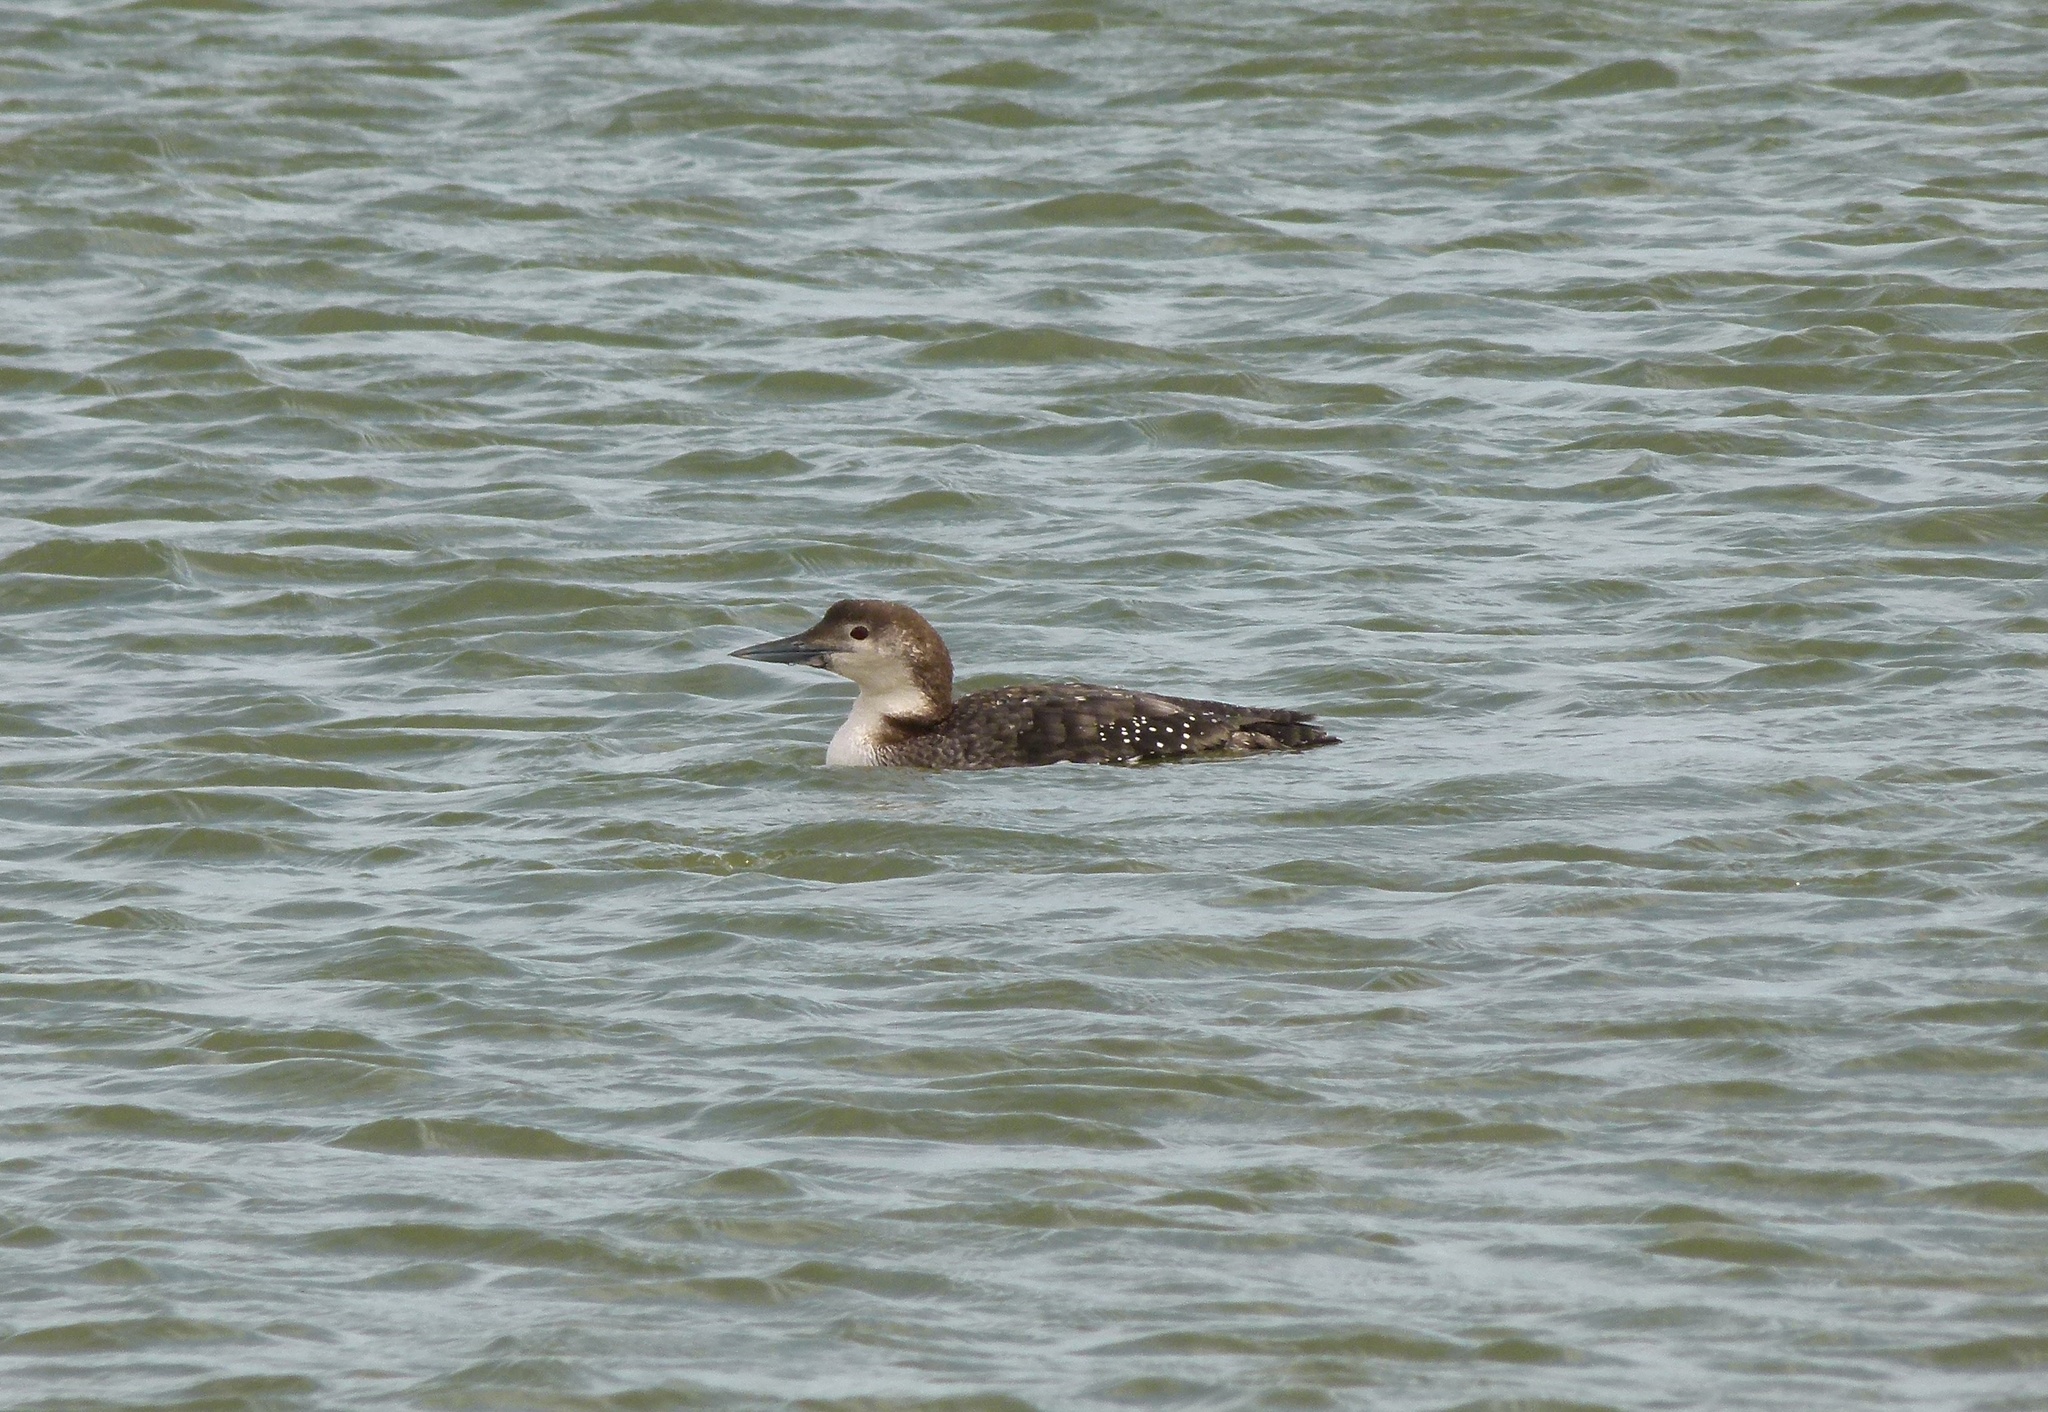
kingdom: Animalia
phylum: Chordata
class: Aves
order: Gaviiformes
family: Gaviidae
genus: Gavia
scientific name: Gavia immer
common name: Common loon
